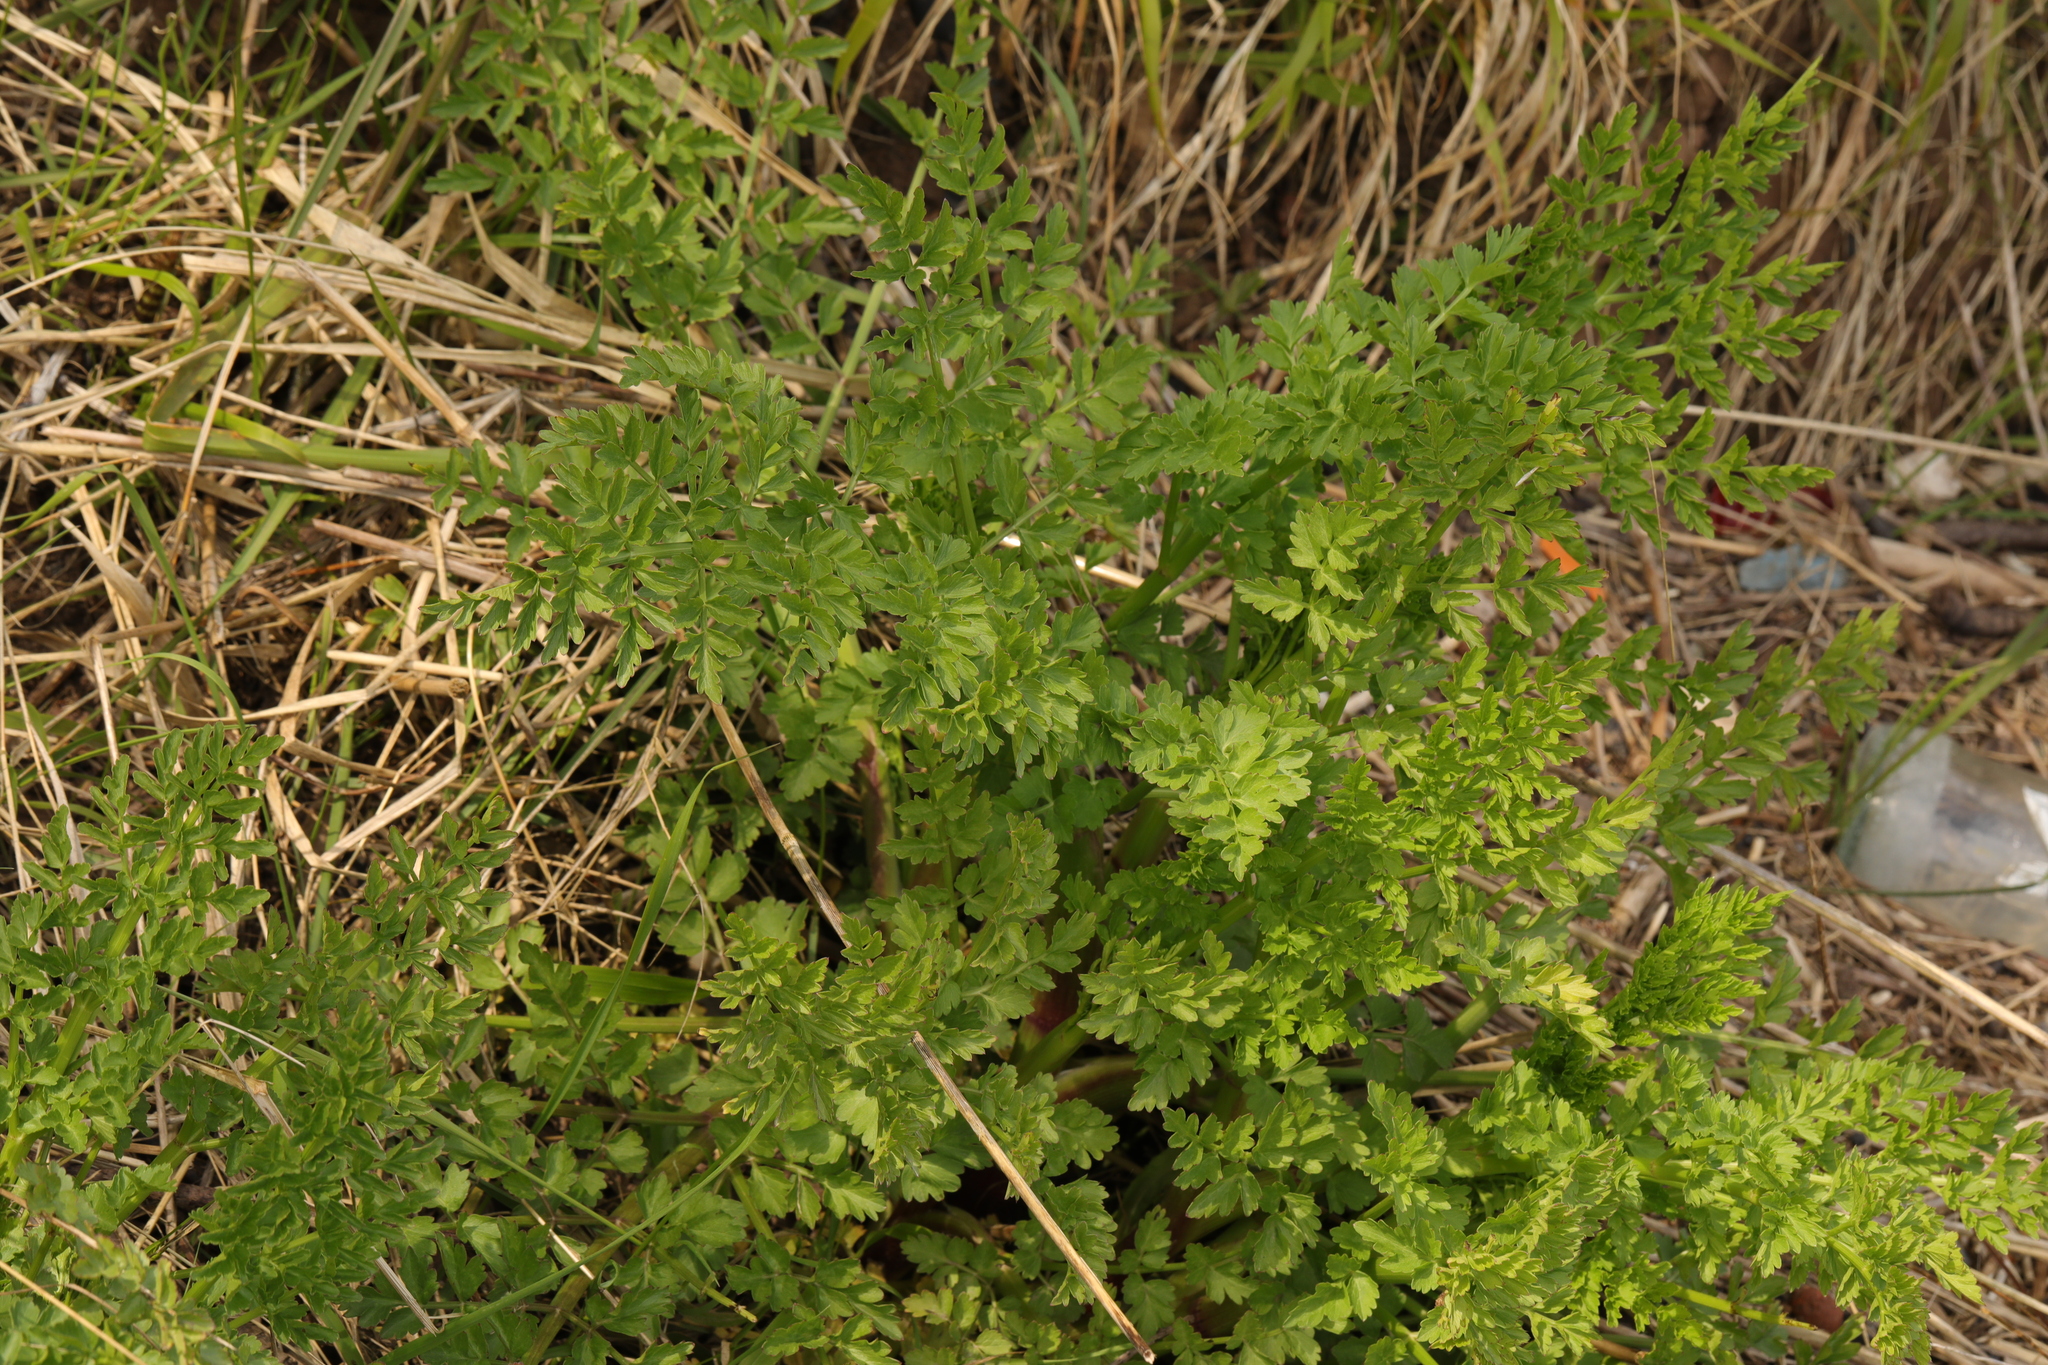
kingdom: Plantae
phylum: Tracheophyta
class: Magnoliopsida
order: Apiales
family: Apiaceae
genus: Oenanthe
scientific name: Oenanthe crocata
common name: Hemlock water-dropwort
